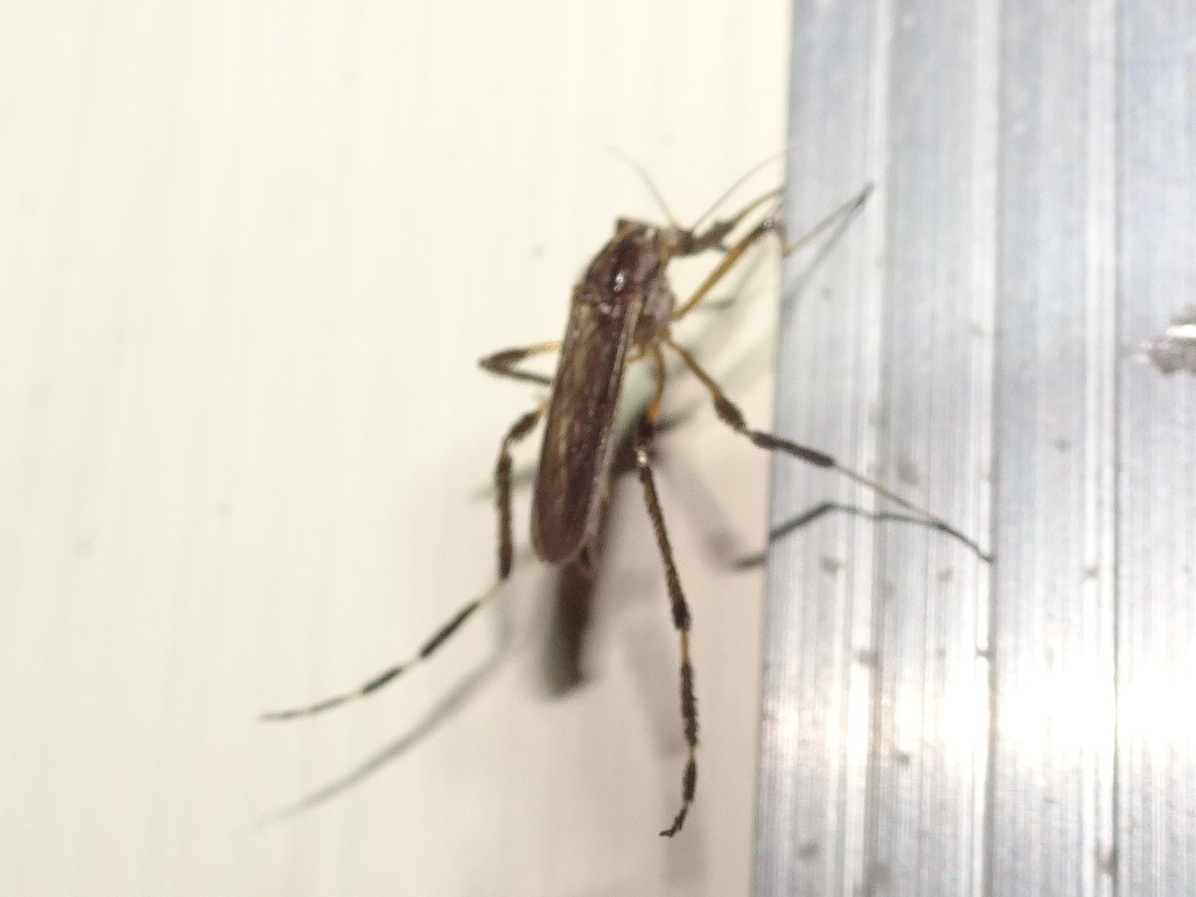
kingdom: Animalia
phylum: Arthropoda
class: Insecta
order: Diptera
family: Culicidae
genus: Psorophora
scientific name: Psorophora ciliata
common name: Gallinipper
